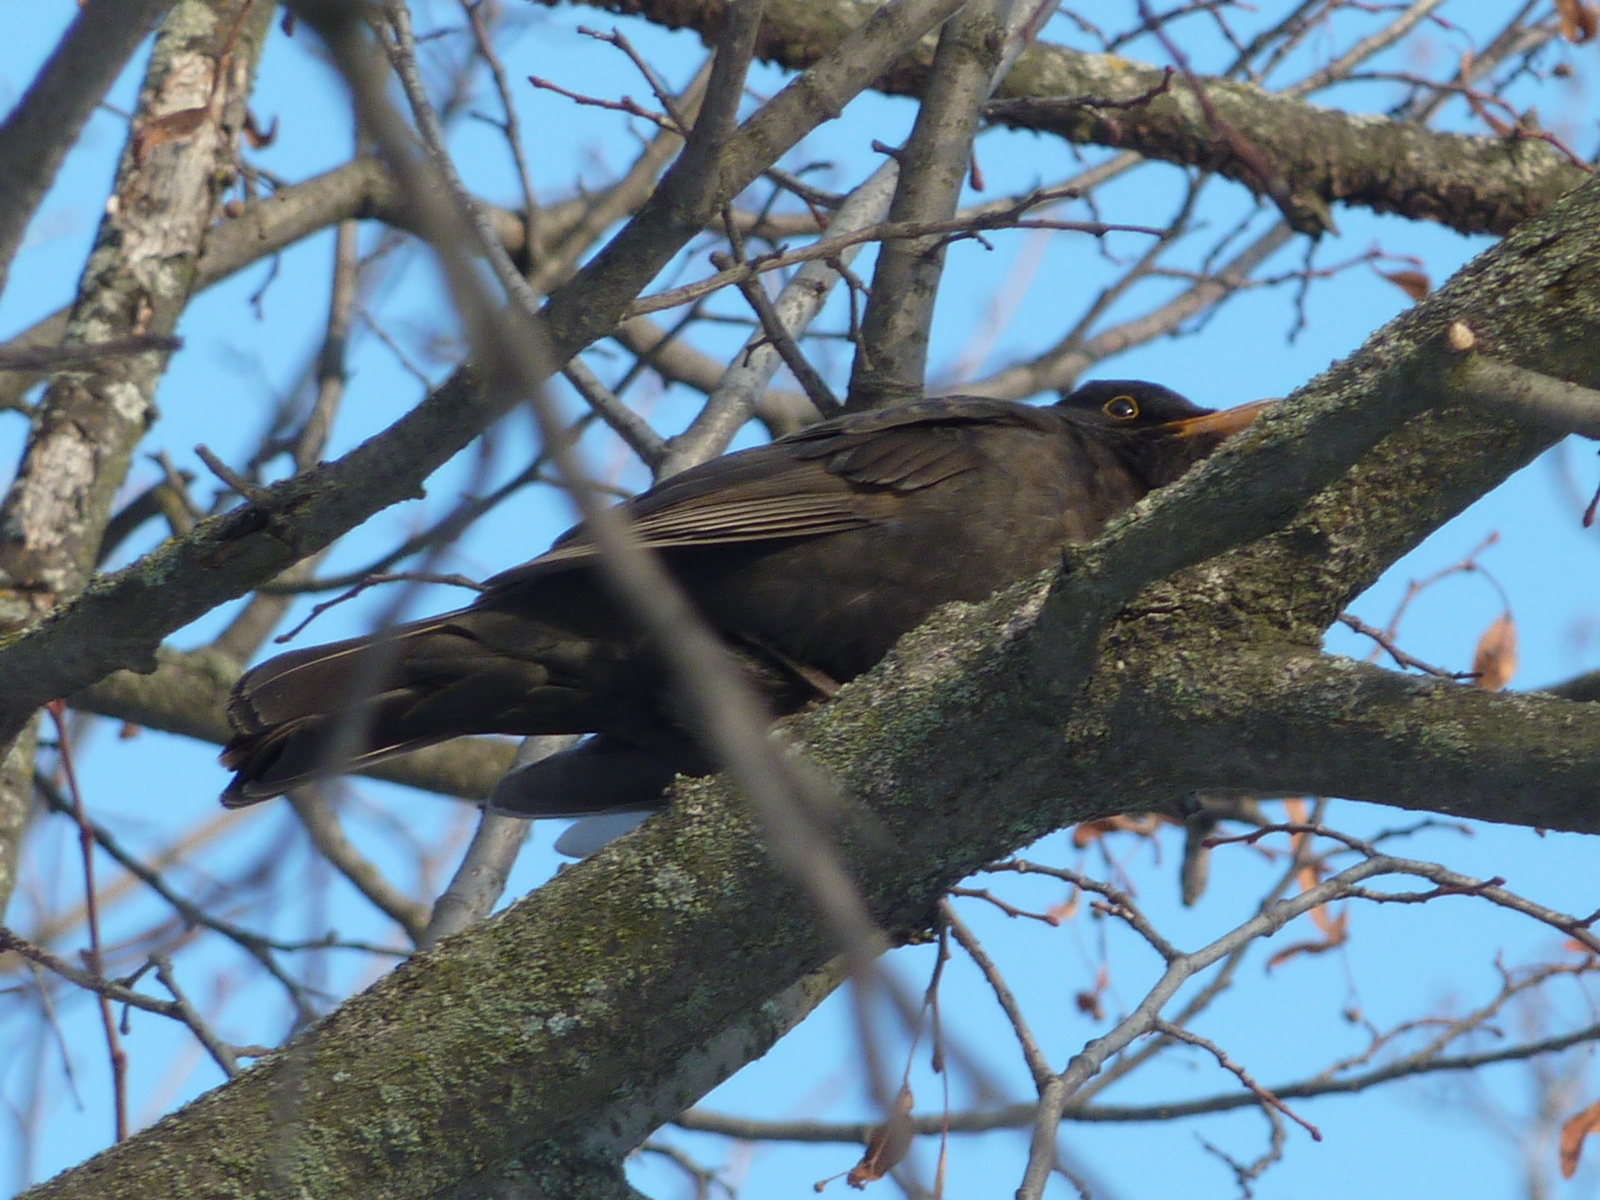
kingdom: Animalia
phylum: Chordata
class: Aves
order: Passeriformes
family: Turdidae
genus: Turdus
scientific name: Turdus merula
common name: Common blackbird
